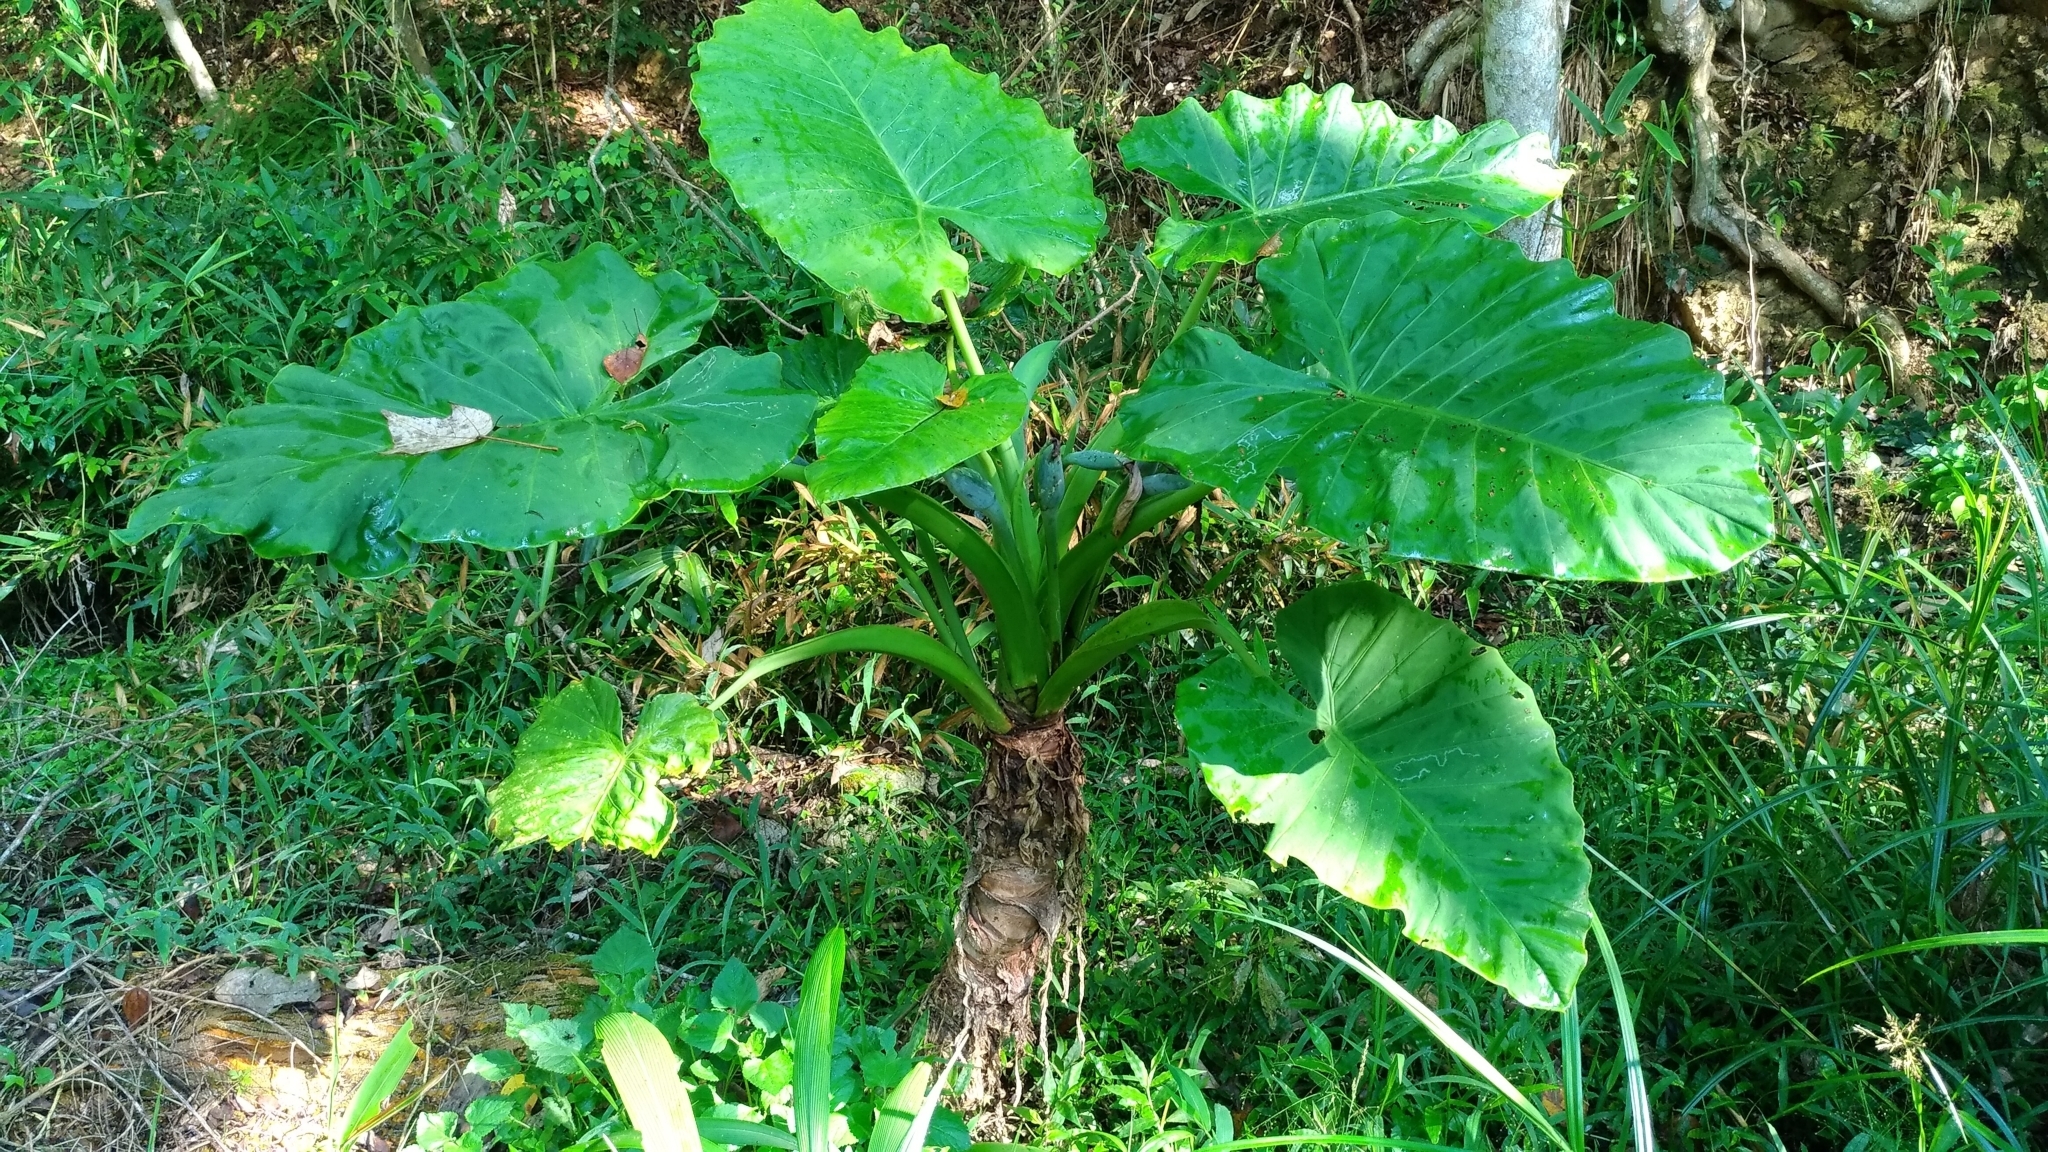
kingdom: Plantae
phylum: Tracheophyta
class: Liliopsida
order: Alismatales
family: Araceae
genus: Alocasia
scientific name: Alocasia odora
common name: Asian taro
